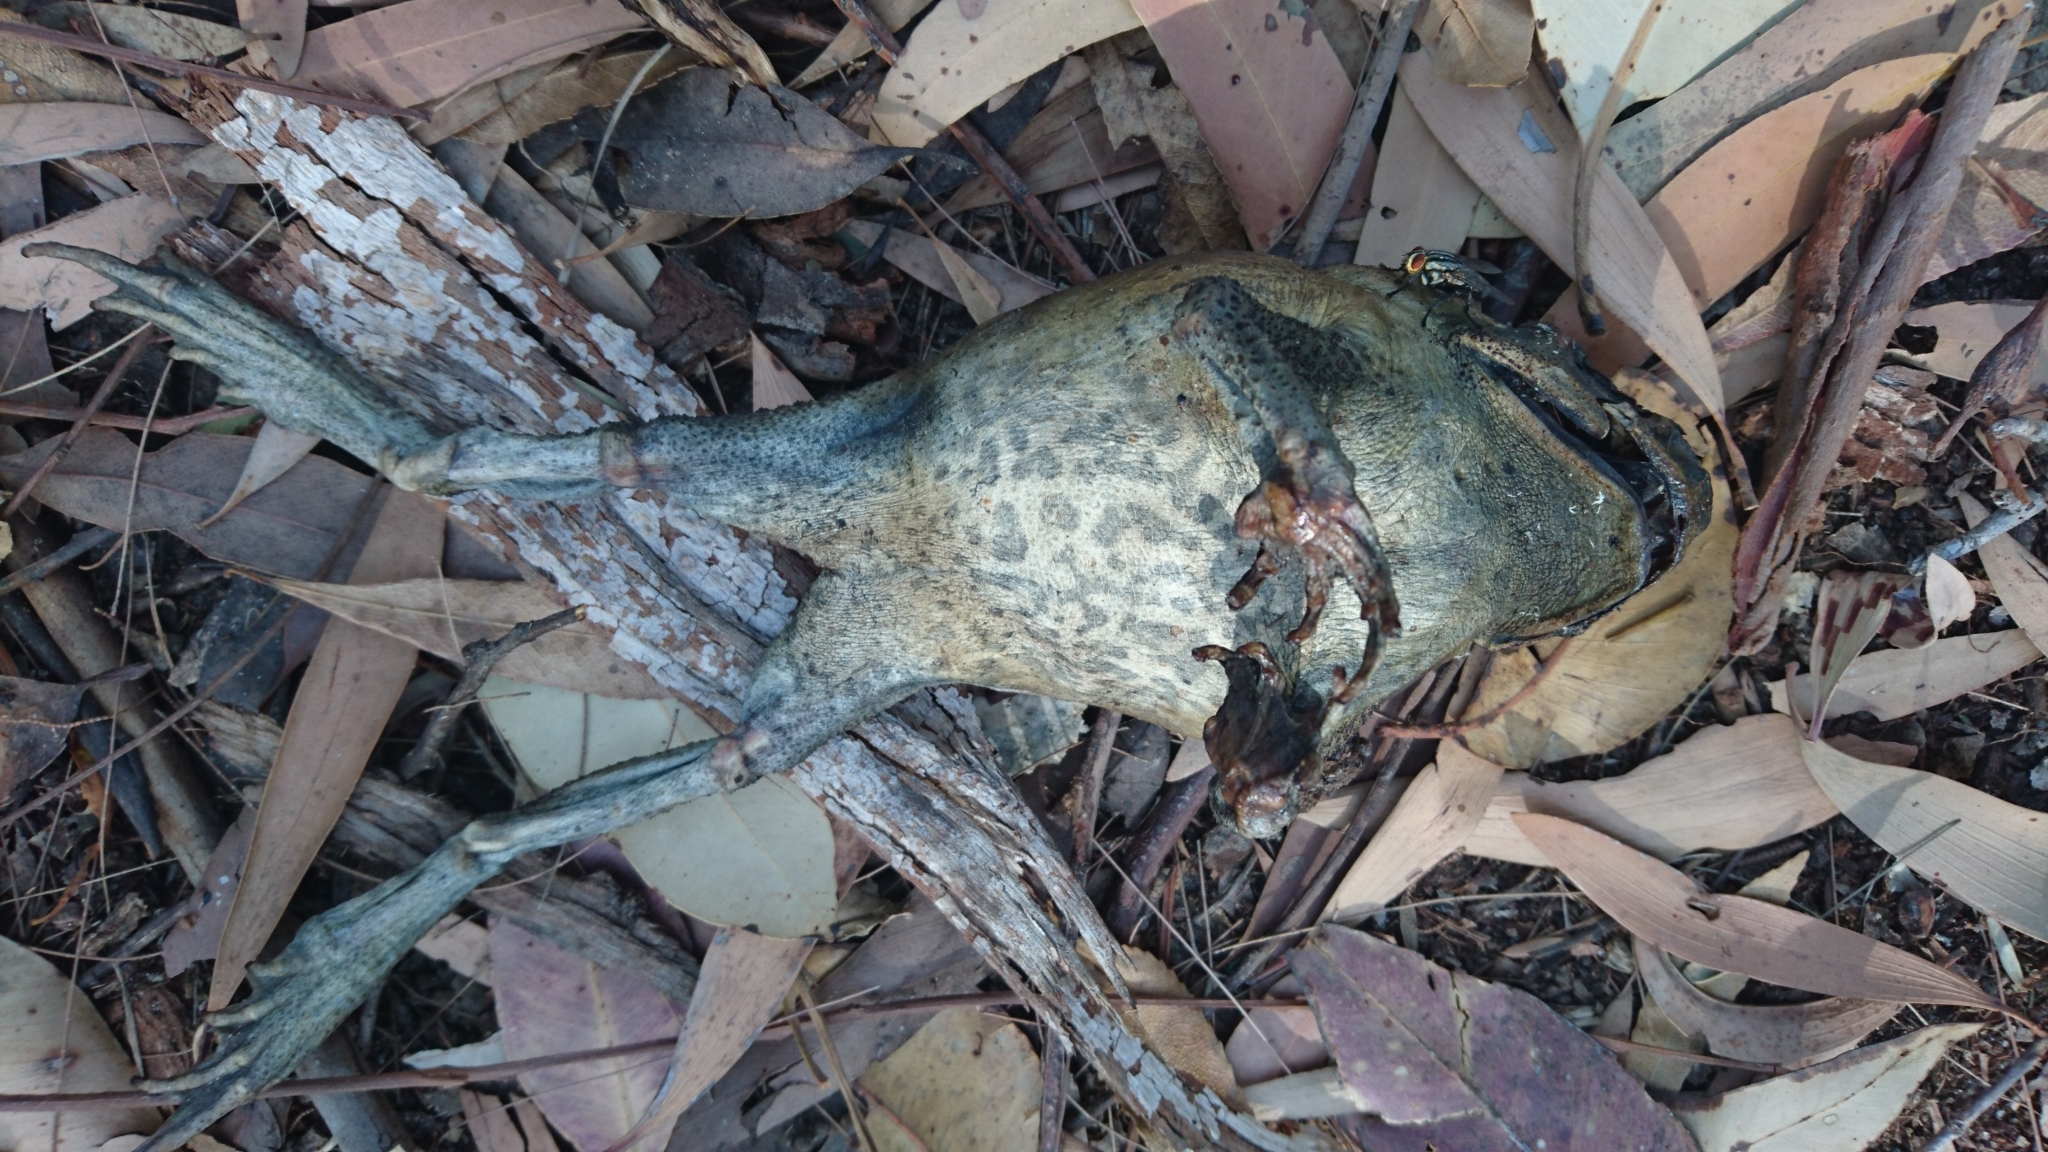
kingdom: Animalia
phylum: Chordata
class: Amphibia
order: Anura
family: Bufonidae
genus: Rhinella
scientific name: Rhinella marina
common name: Cane toad
